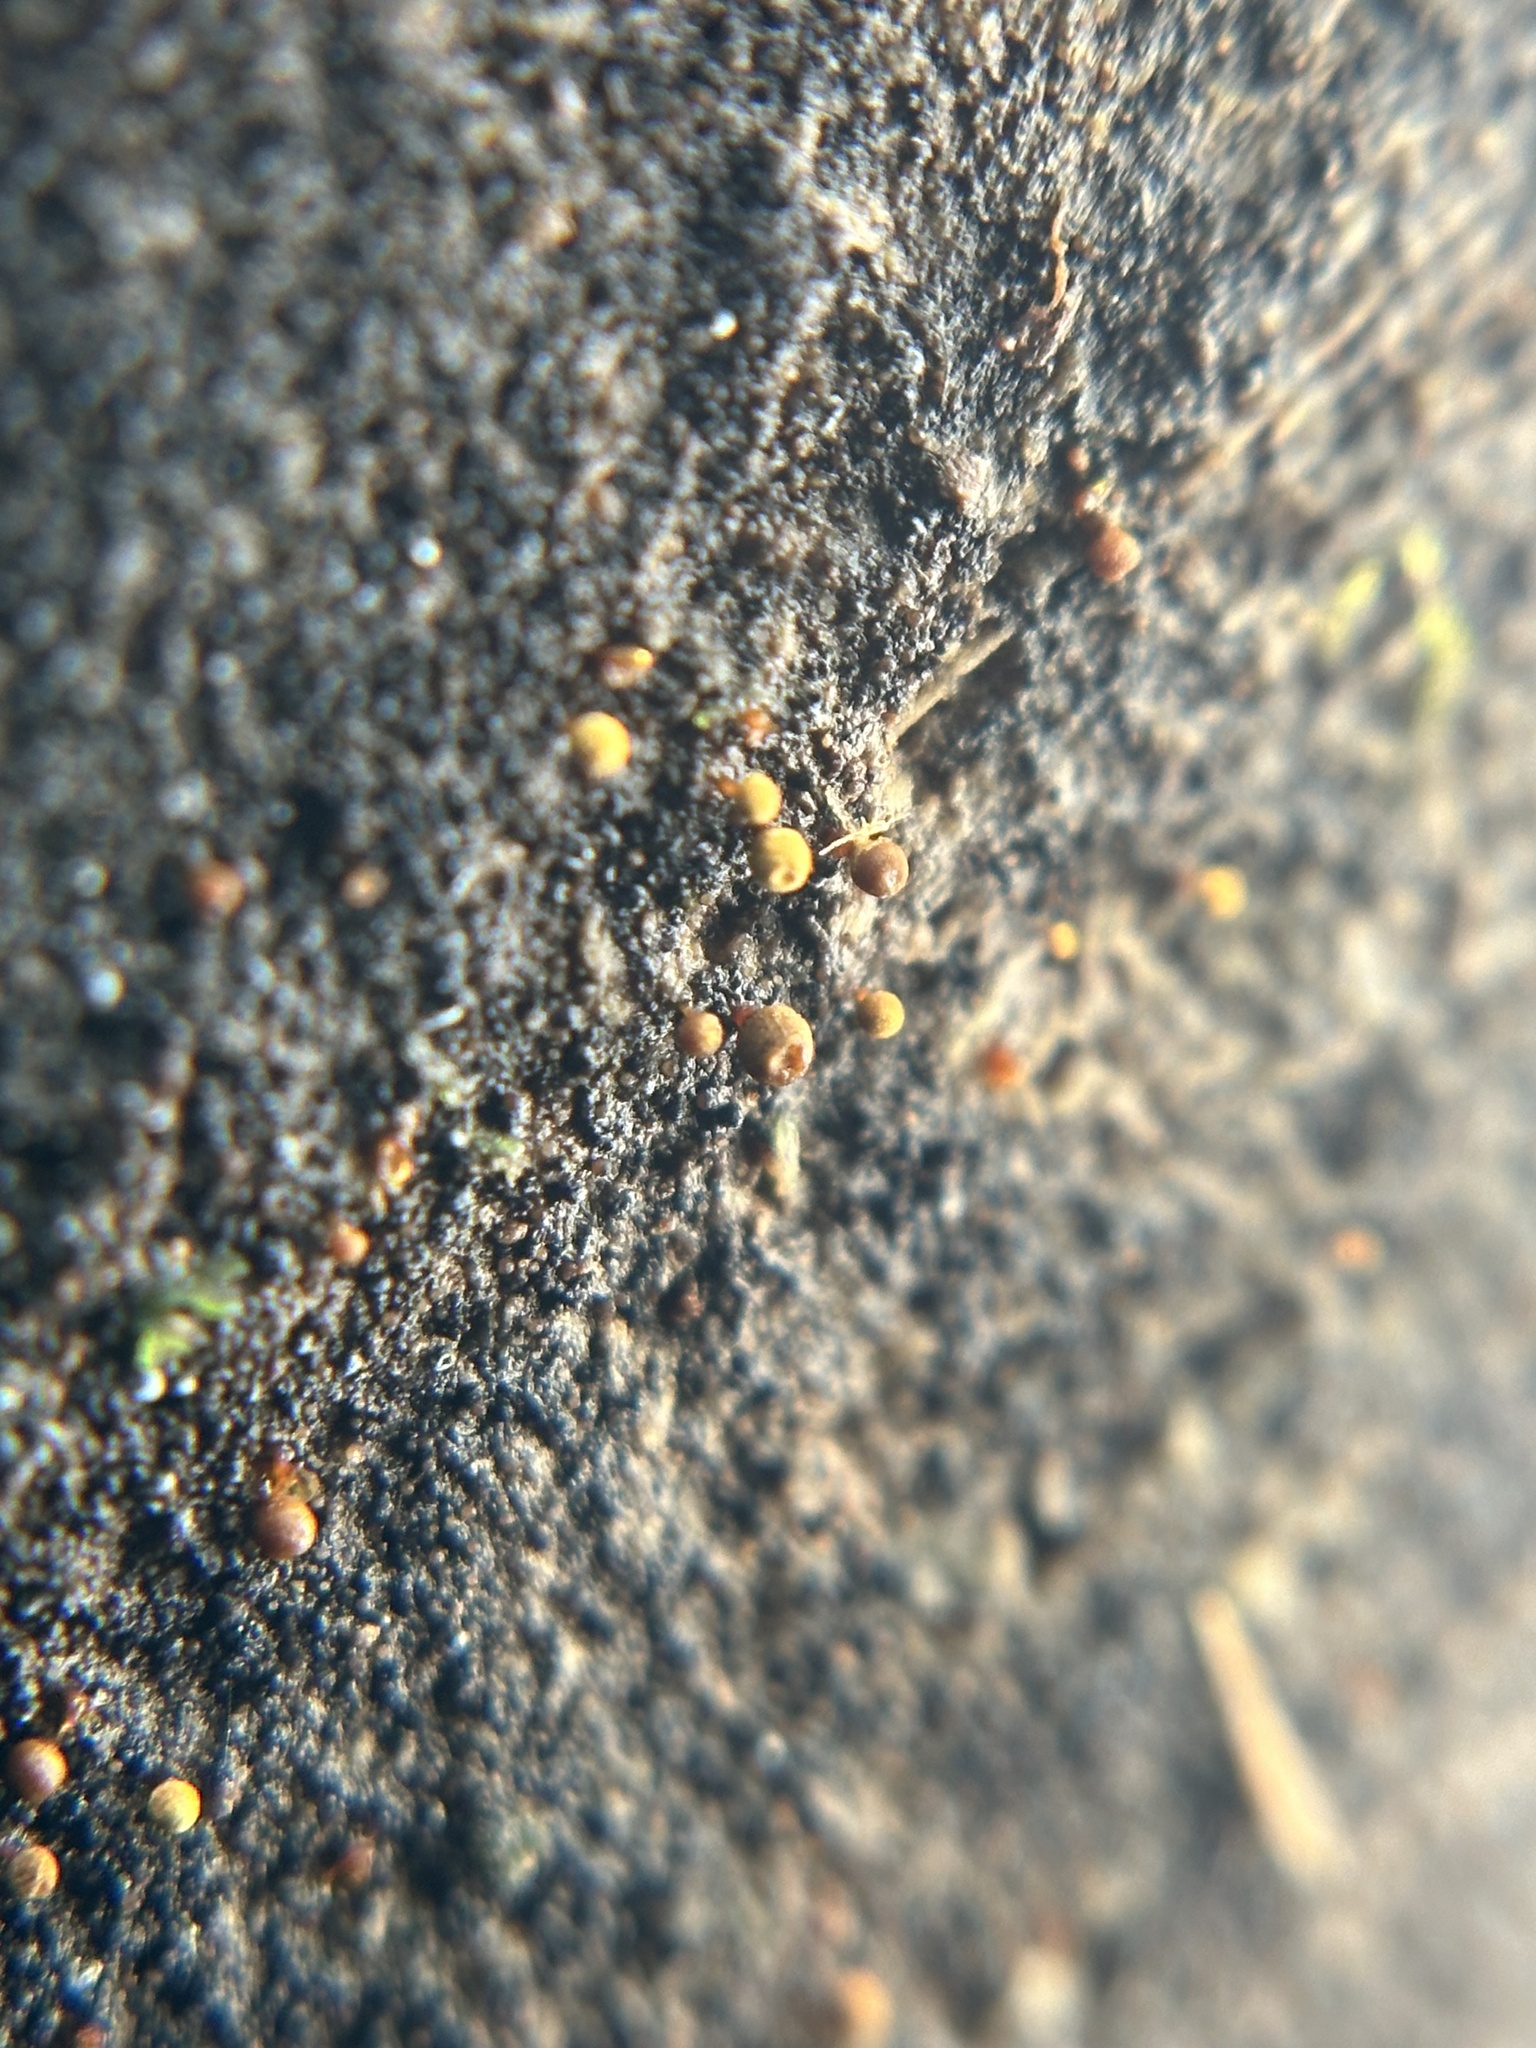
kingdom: Protozoa
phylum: Mycetozoa
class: Myxomycetes
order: Trichiales
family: Arcyriaceae
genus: Hemitrichia
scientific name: Hemitrichia calyculata
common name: Push pin slime mold
